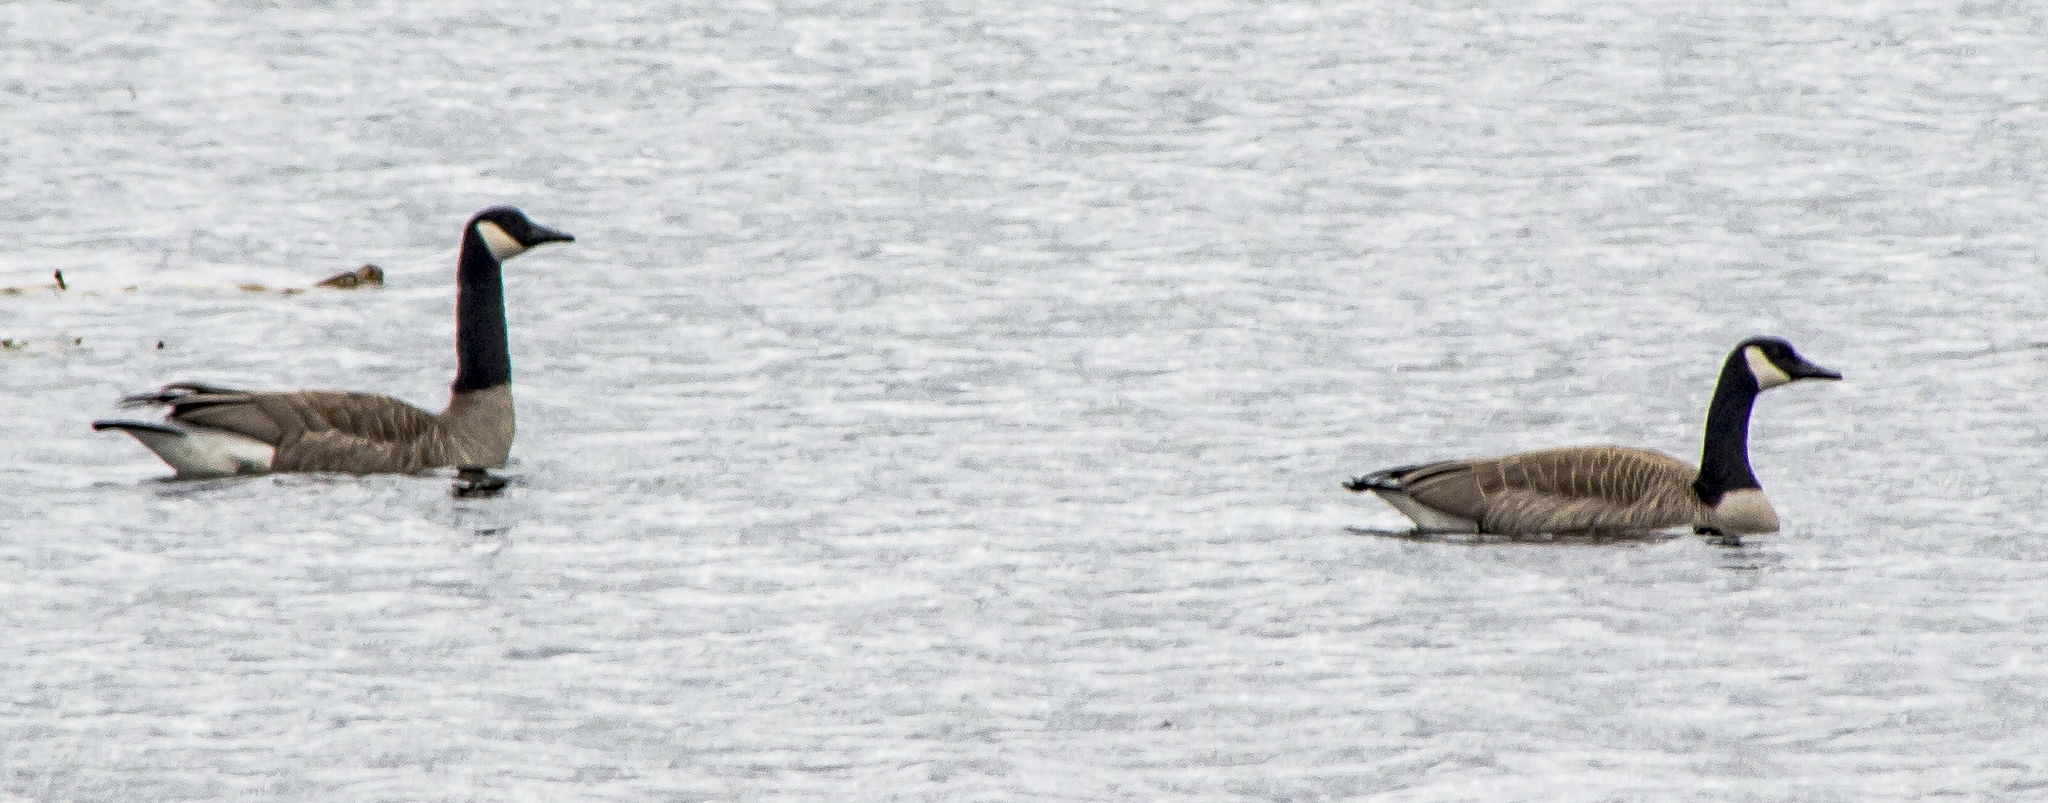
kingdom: Animalia
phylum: Chordata
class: Aves
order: Anseriformes
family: Anatidae
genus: Branta
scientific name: Branta canadensis
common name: Canada goose
